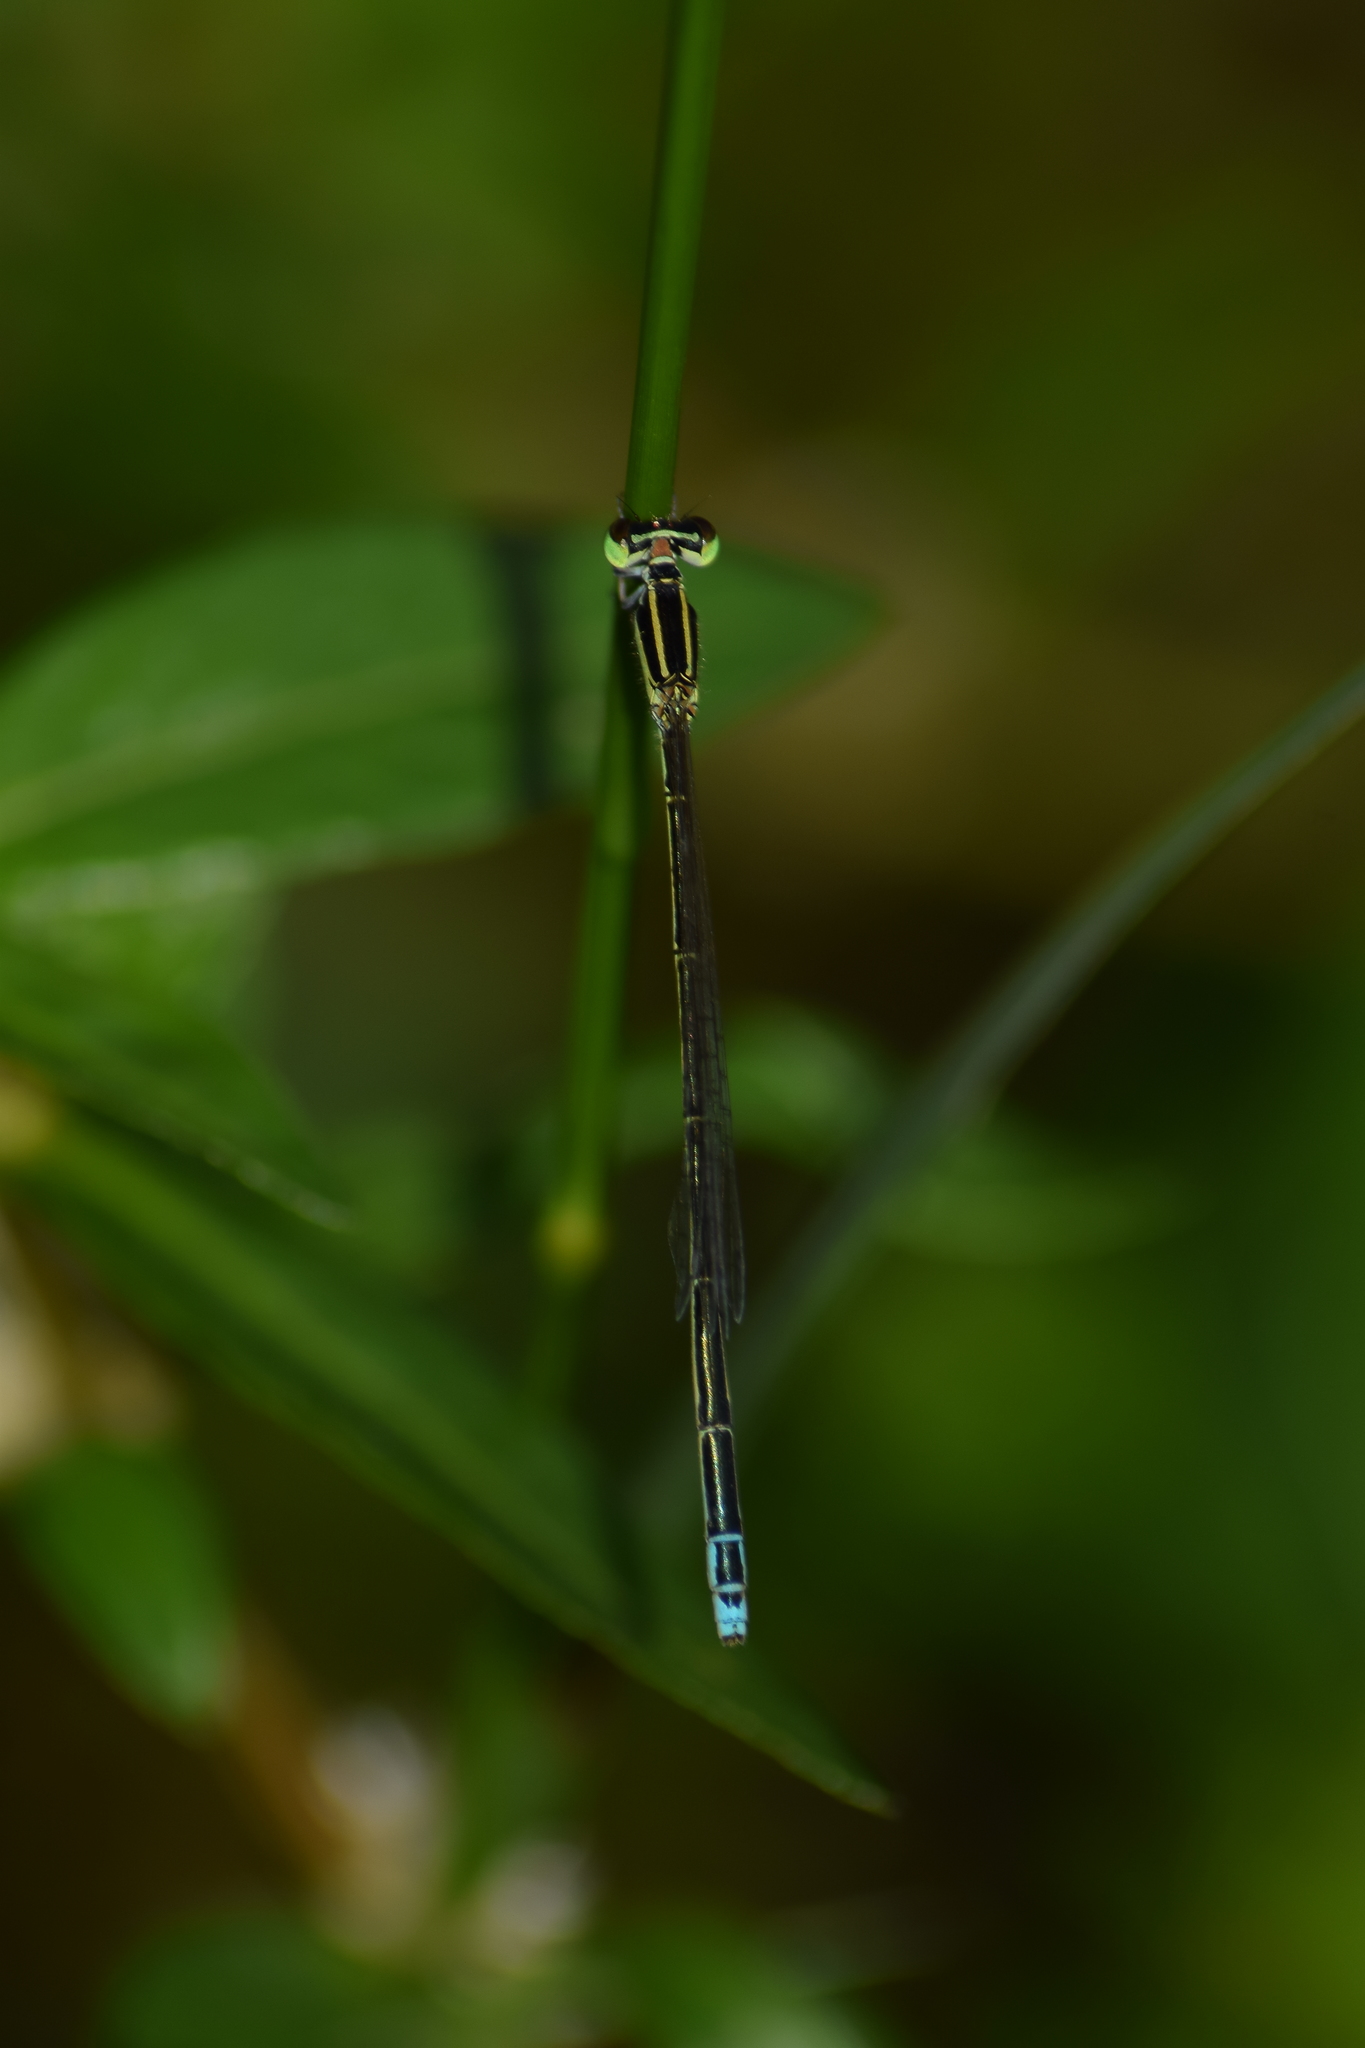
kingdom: Animalia
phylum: Arthropoda
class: Insecta
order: Odonata
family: Coenagrionidae
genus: Aciagrion
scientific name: Aciagrion occidentale
